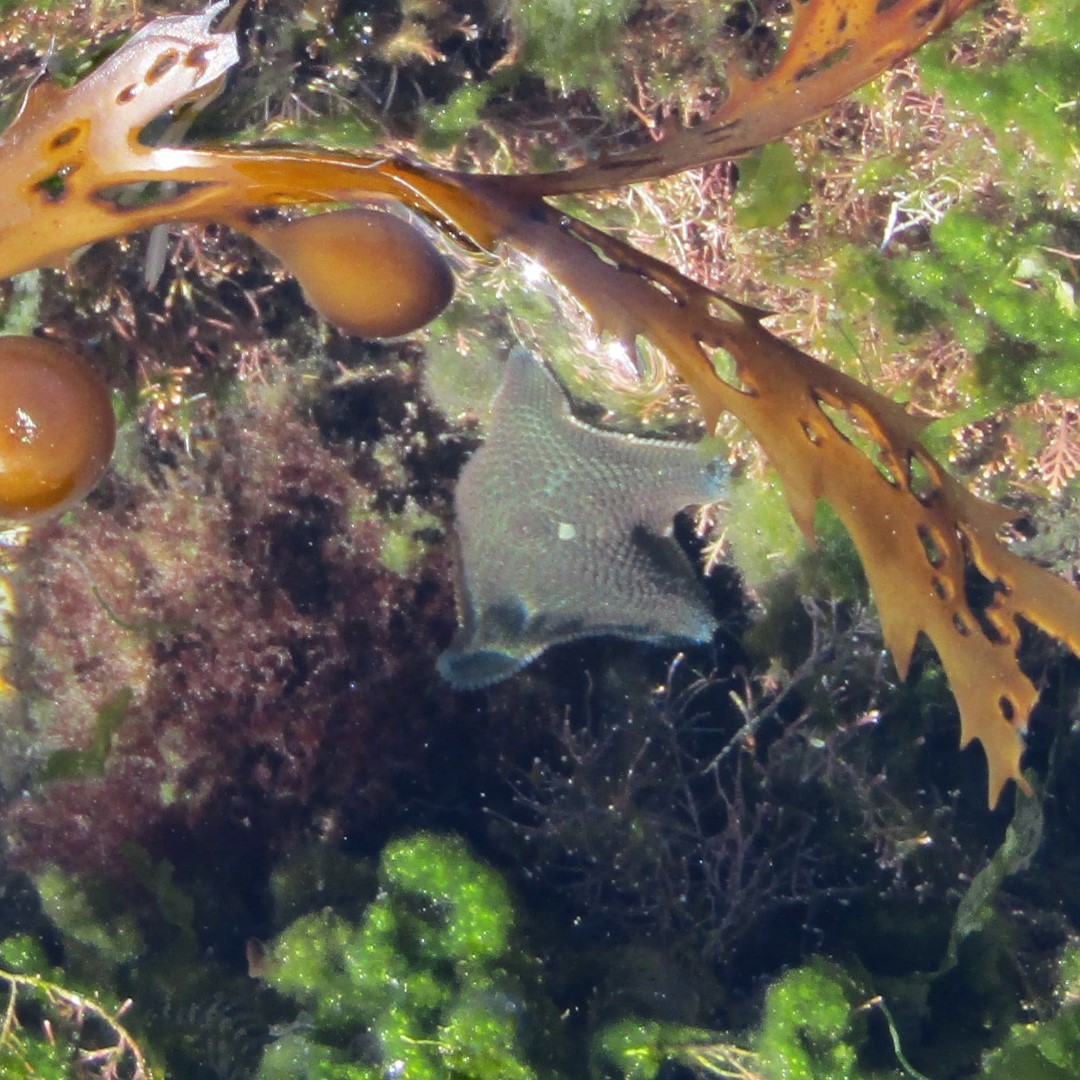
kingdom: Animalia
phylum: Echinodermata
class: Asteroidea
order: Valvatida
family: Asterinidae
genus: Patiriella
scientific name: Patiriella regularis
